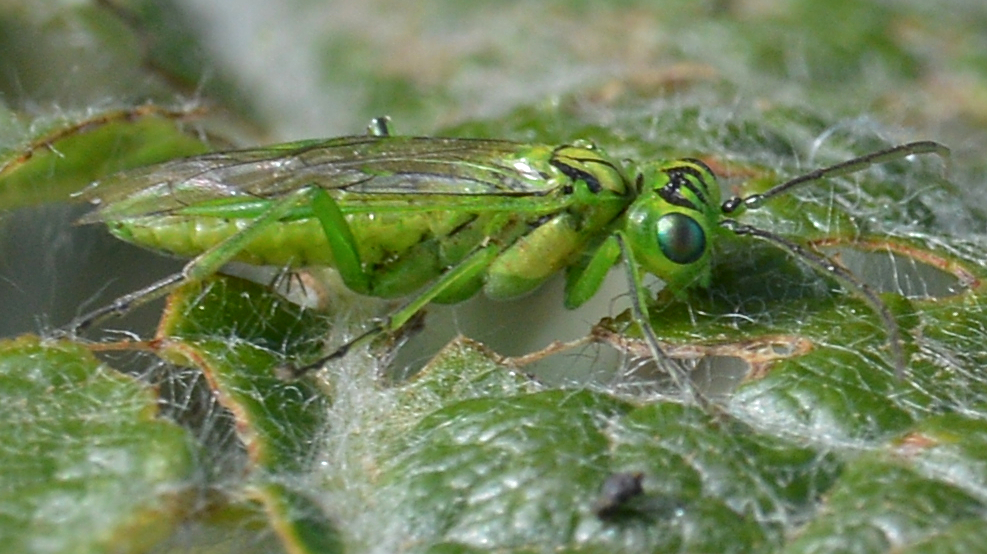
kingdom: Animalia
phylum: Arthropoda
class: Insecta
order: Hymenoptera
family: Tenthredinidae
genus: Rhogogaster
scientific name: Rhogogaster punctulata
